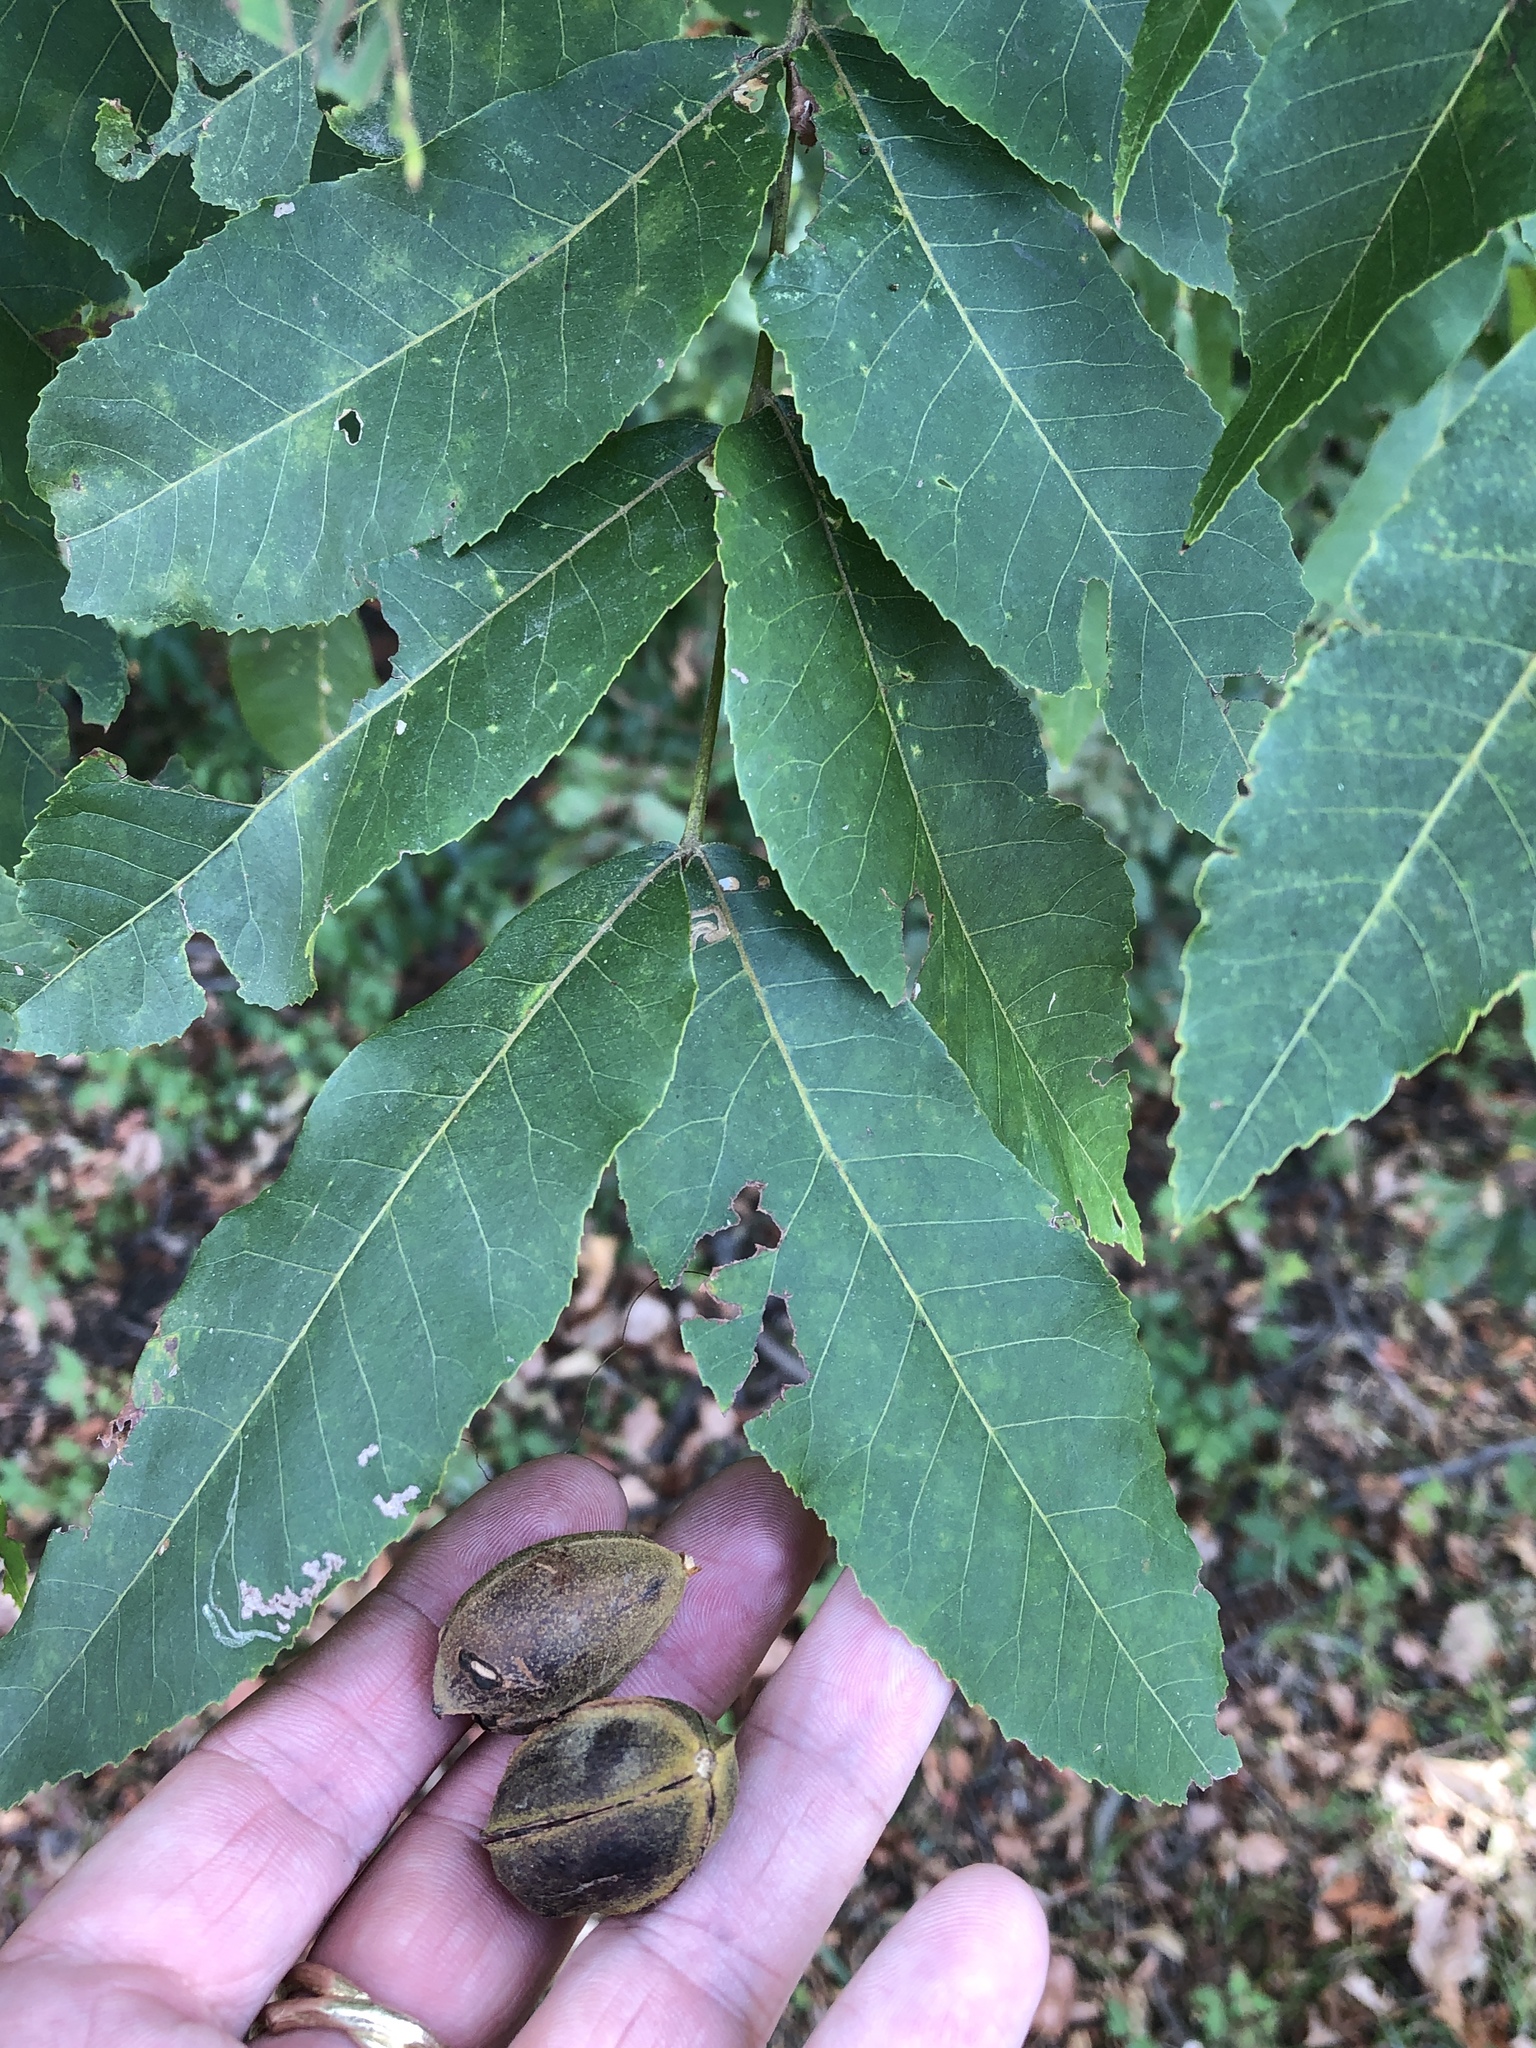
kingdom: Plantae
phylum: Tracheophyta
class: Magnoliopsida
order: Fagales
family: Juglandaceae
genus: Carya
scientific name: Carya illinoinensis
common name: Pecan
